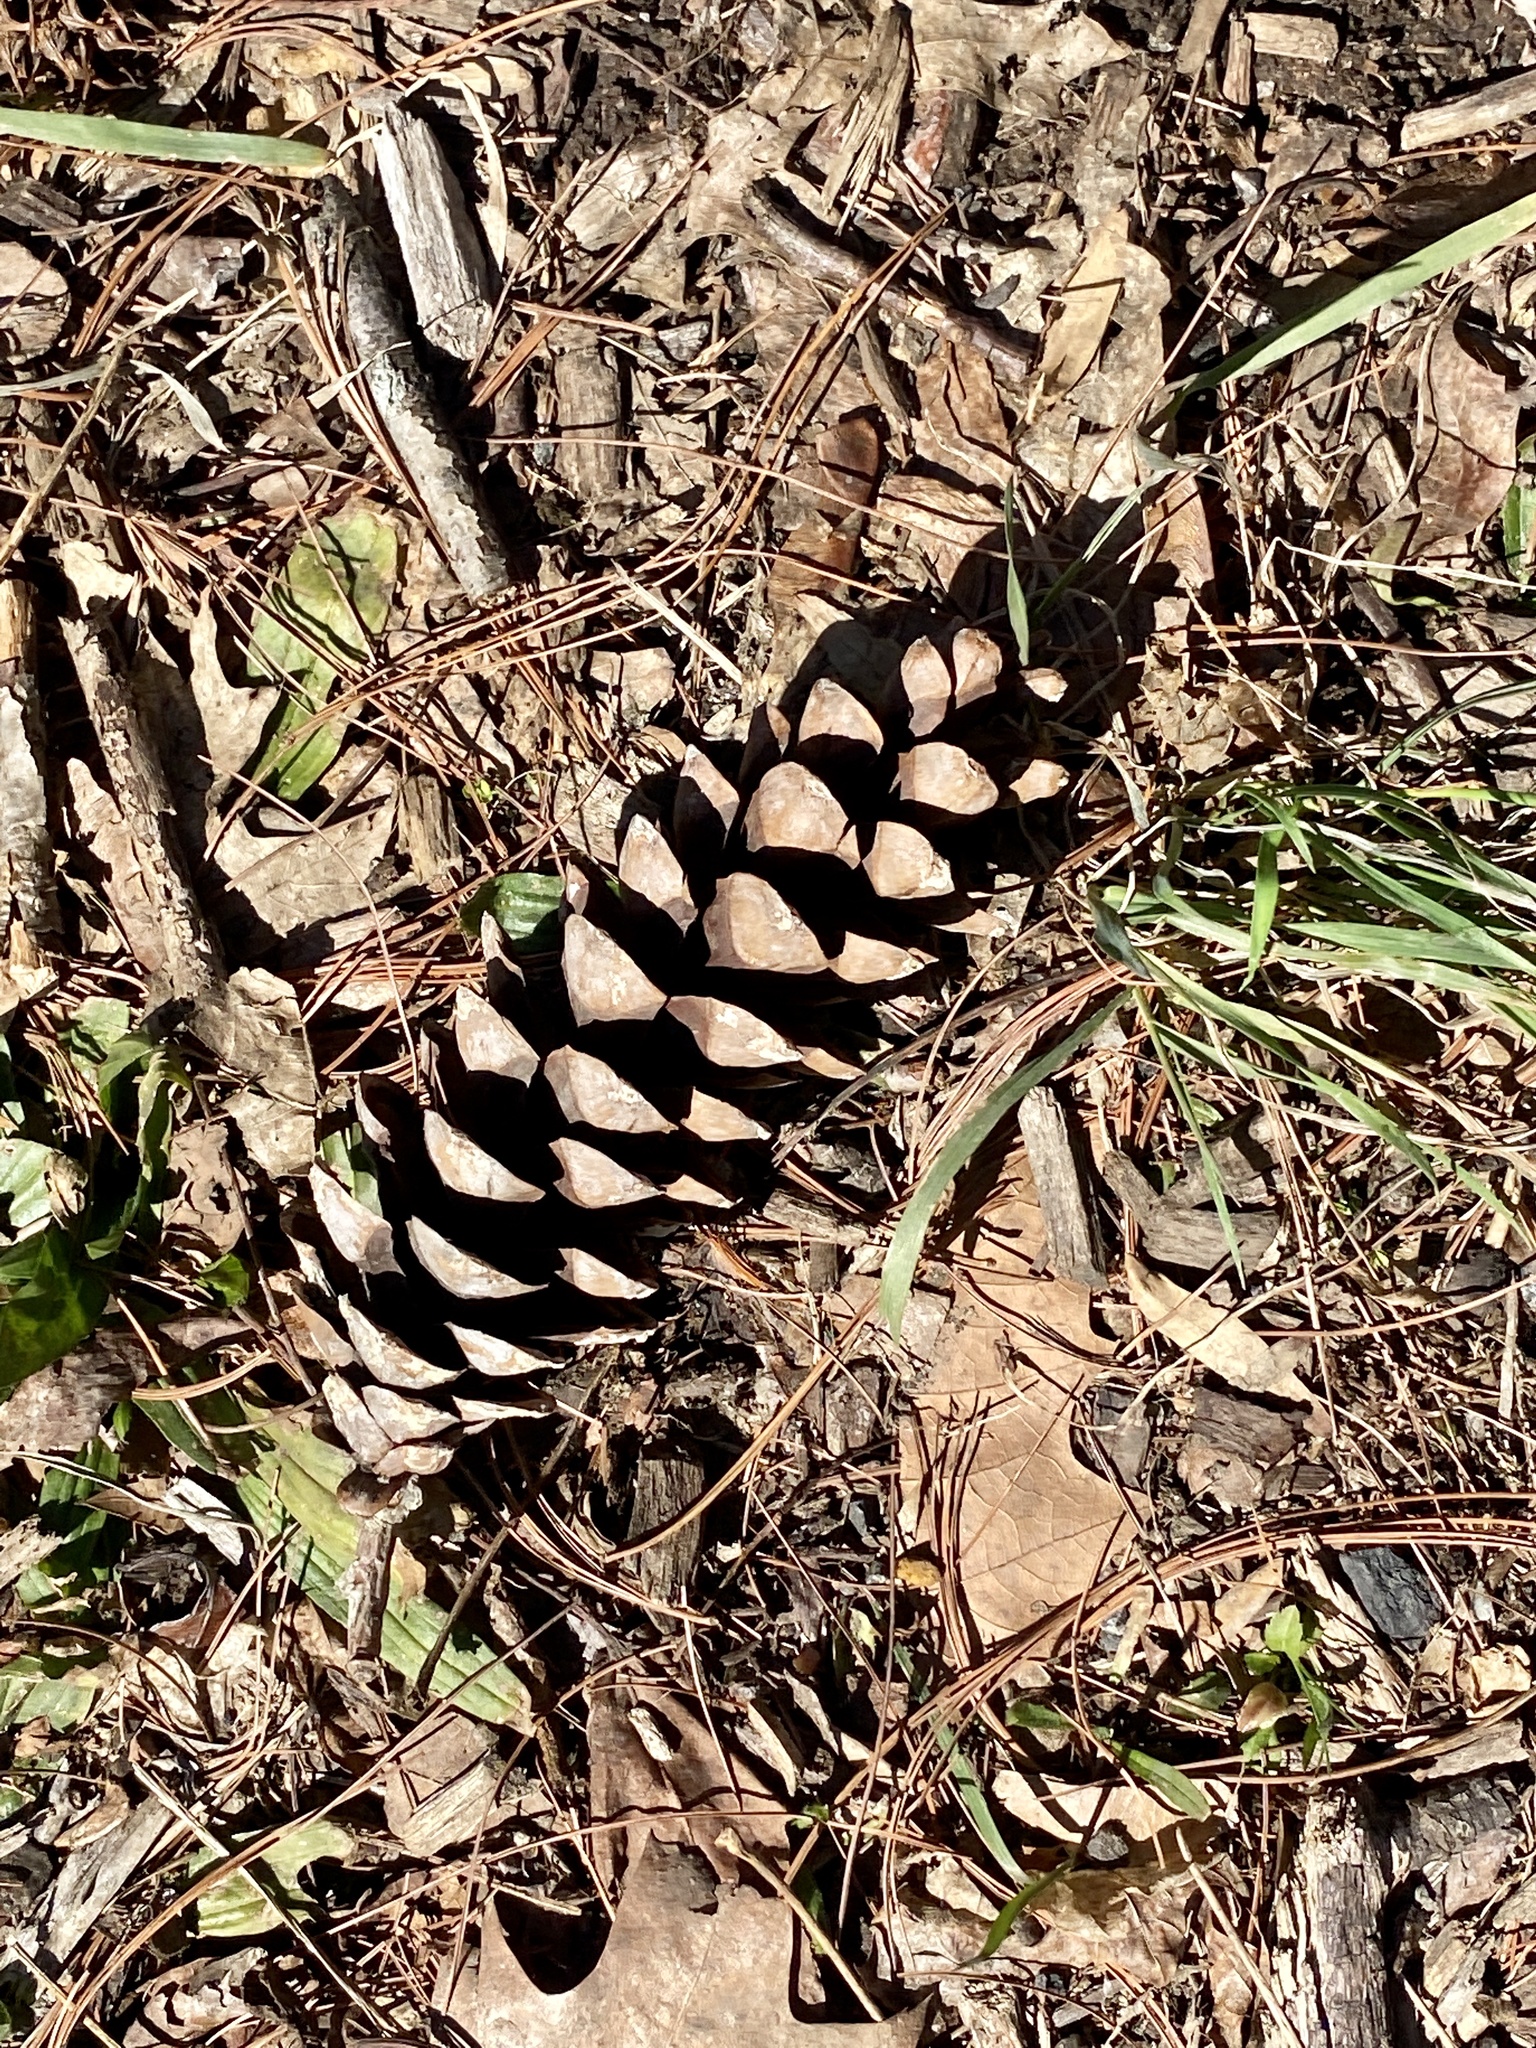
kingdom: Plantae
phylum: Tracheophyta
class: Pinopsida
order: Pinales
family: Pinaceae
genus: Pinus
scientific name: Pinus strobus
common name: Weymouth pine
